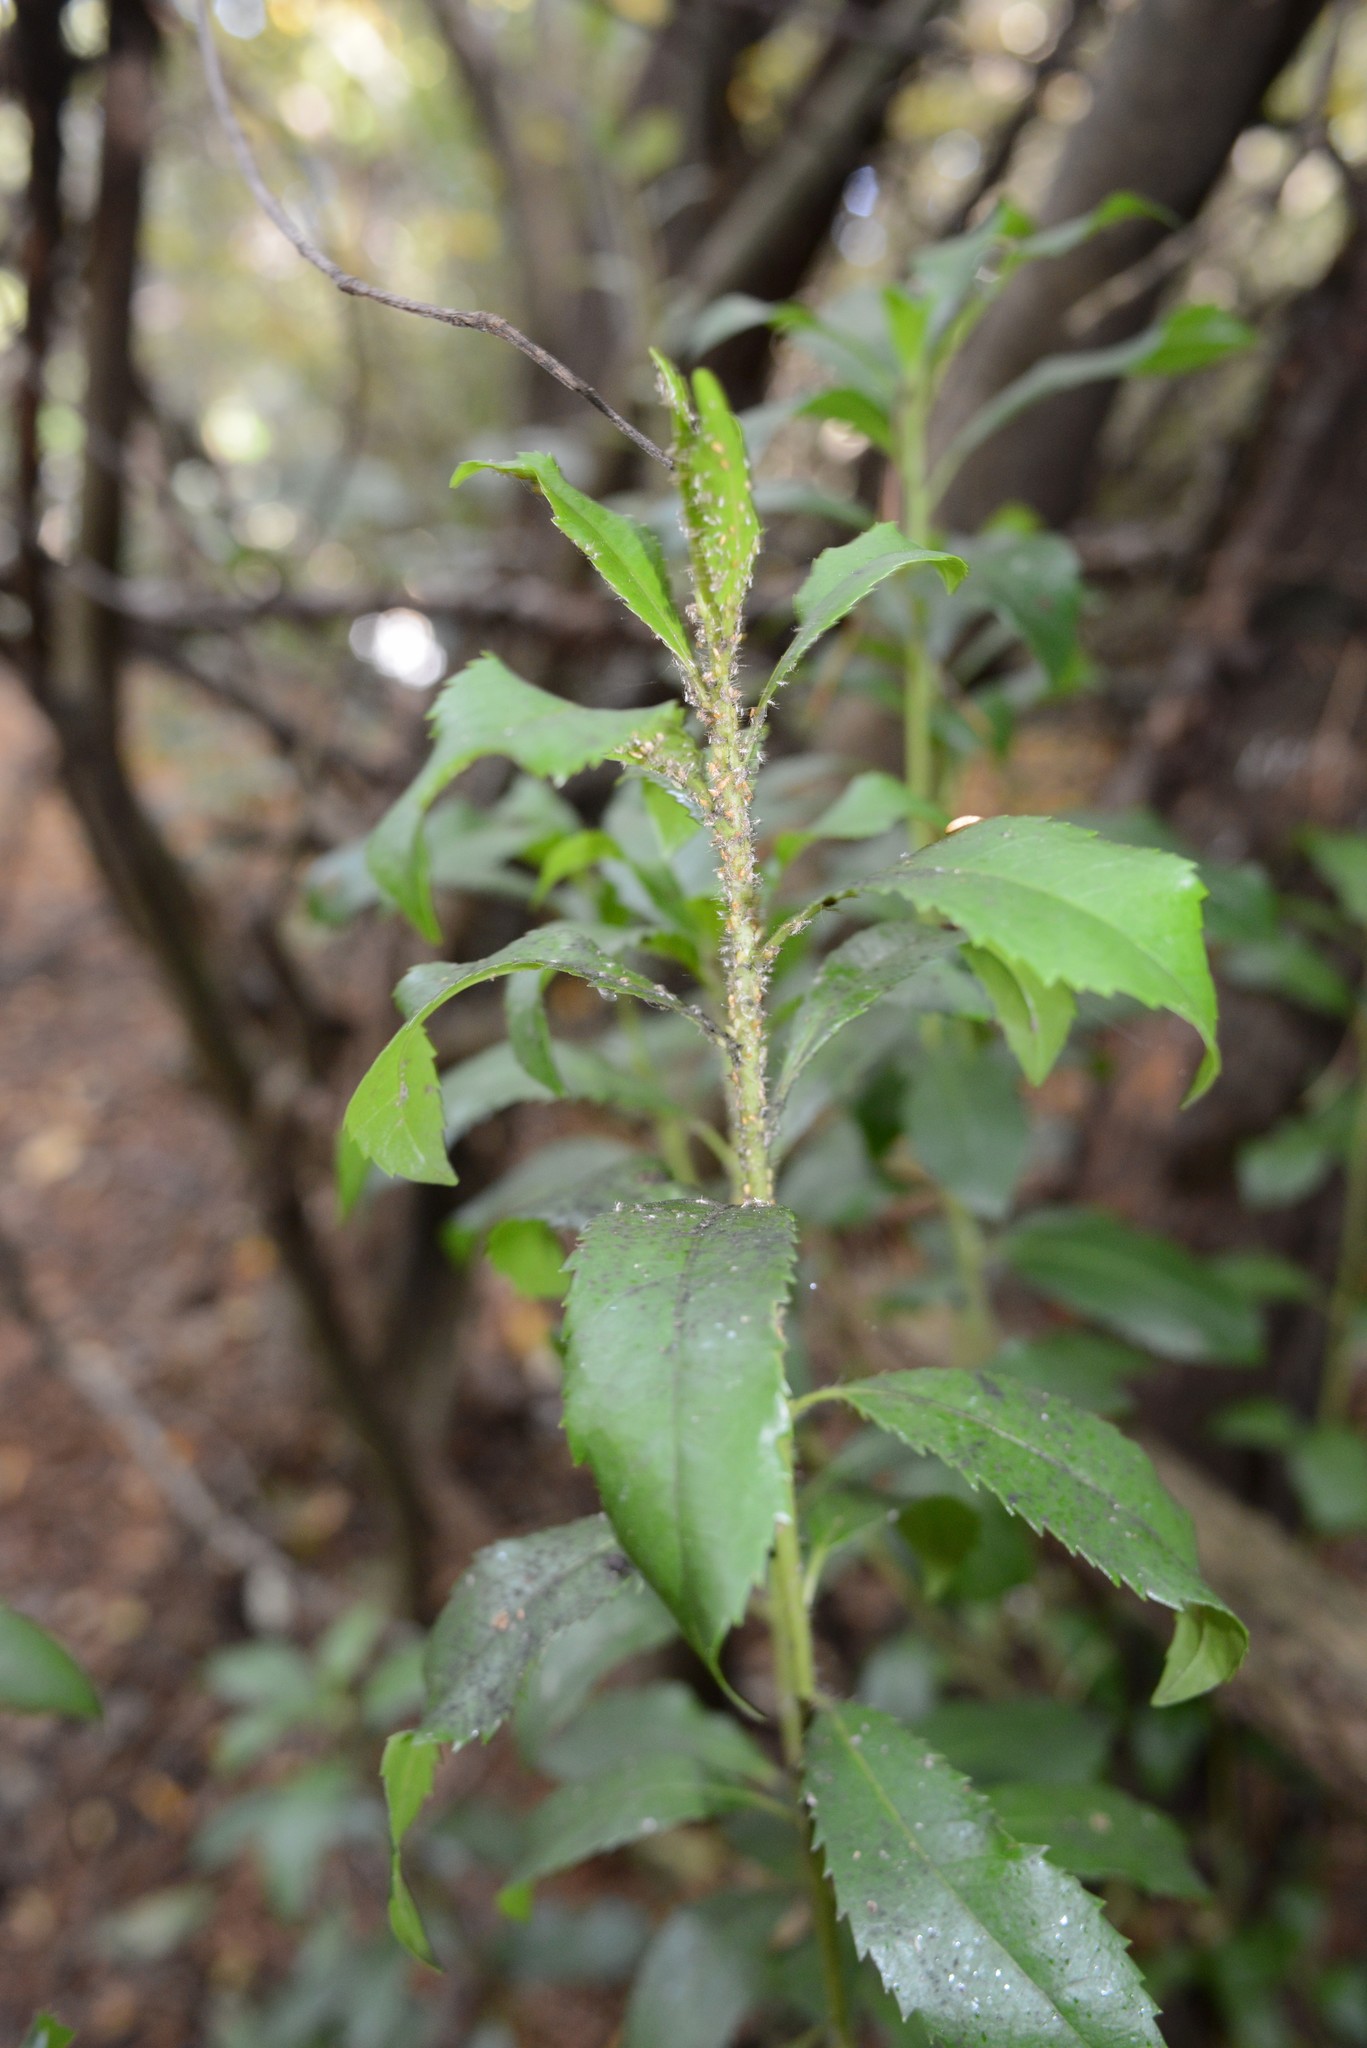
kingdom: Plantae
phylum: Tracheophyta
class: Magnoliopsida
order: Escalloniales
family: Escalloniaceae
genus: Escallonia
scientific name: Escallonia rubra
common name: Redclaws
